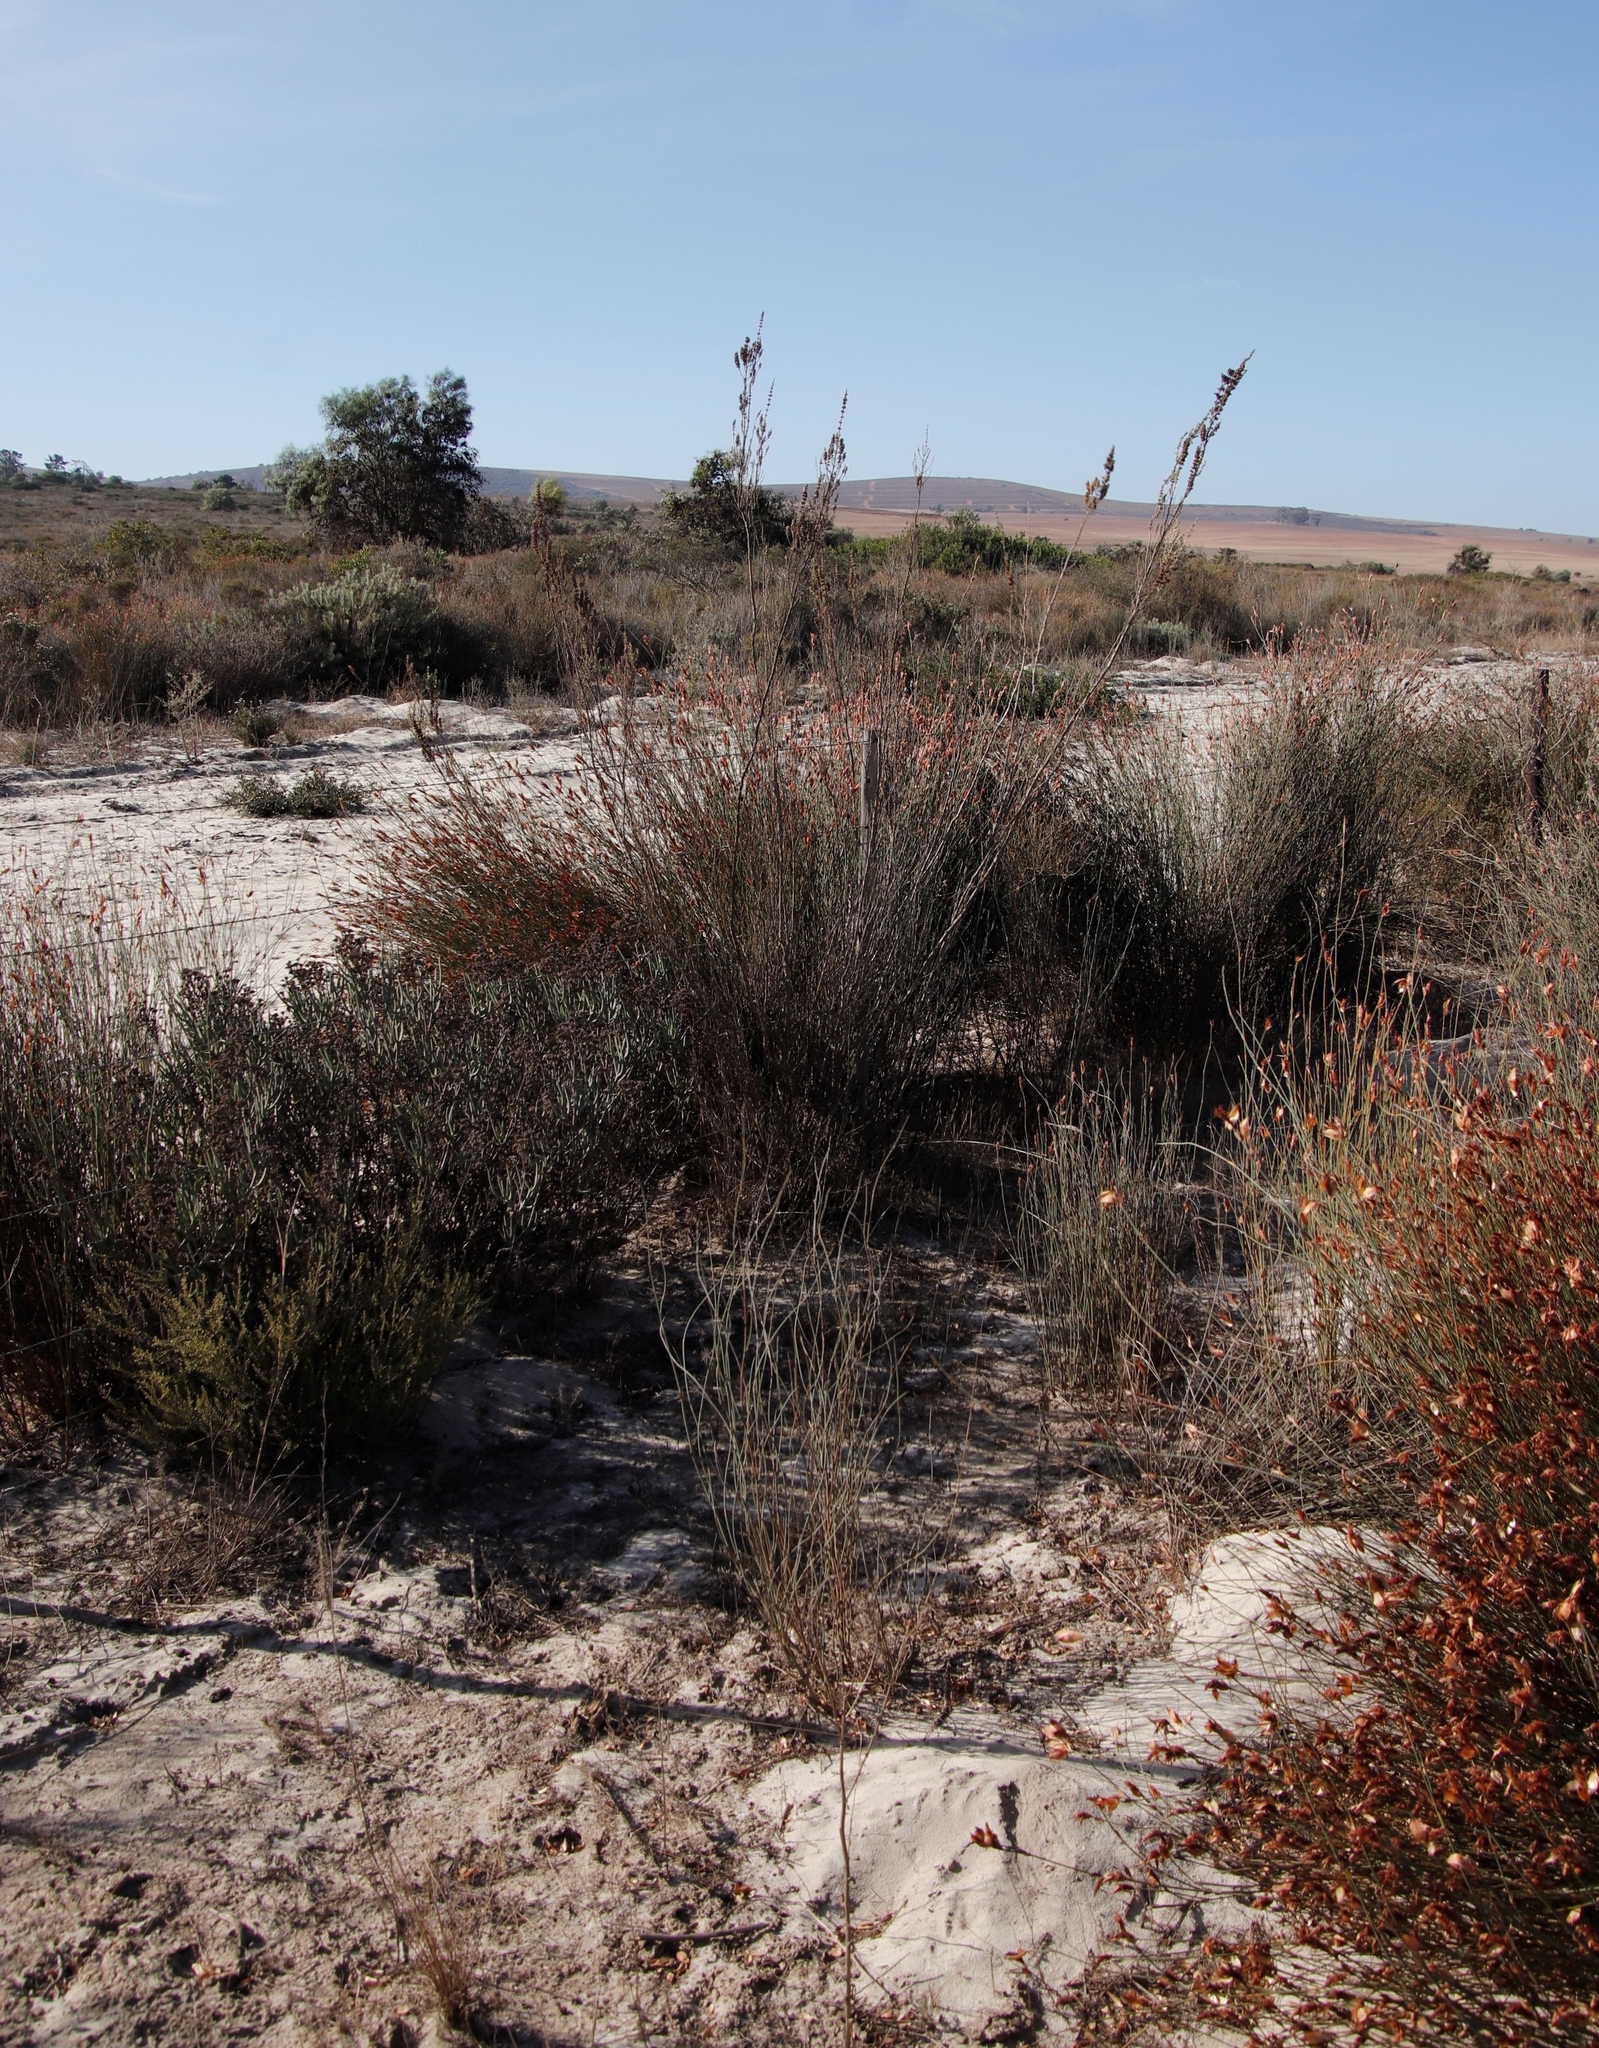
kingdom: Plantae
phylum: Tracheophyta
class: Magnoliopsida
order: Sapindales
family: Anacardiaceae
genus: Searsia
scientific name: Searsia laevigata
